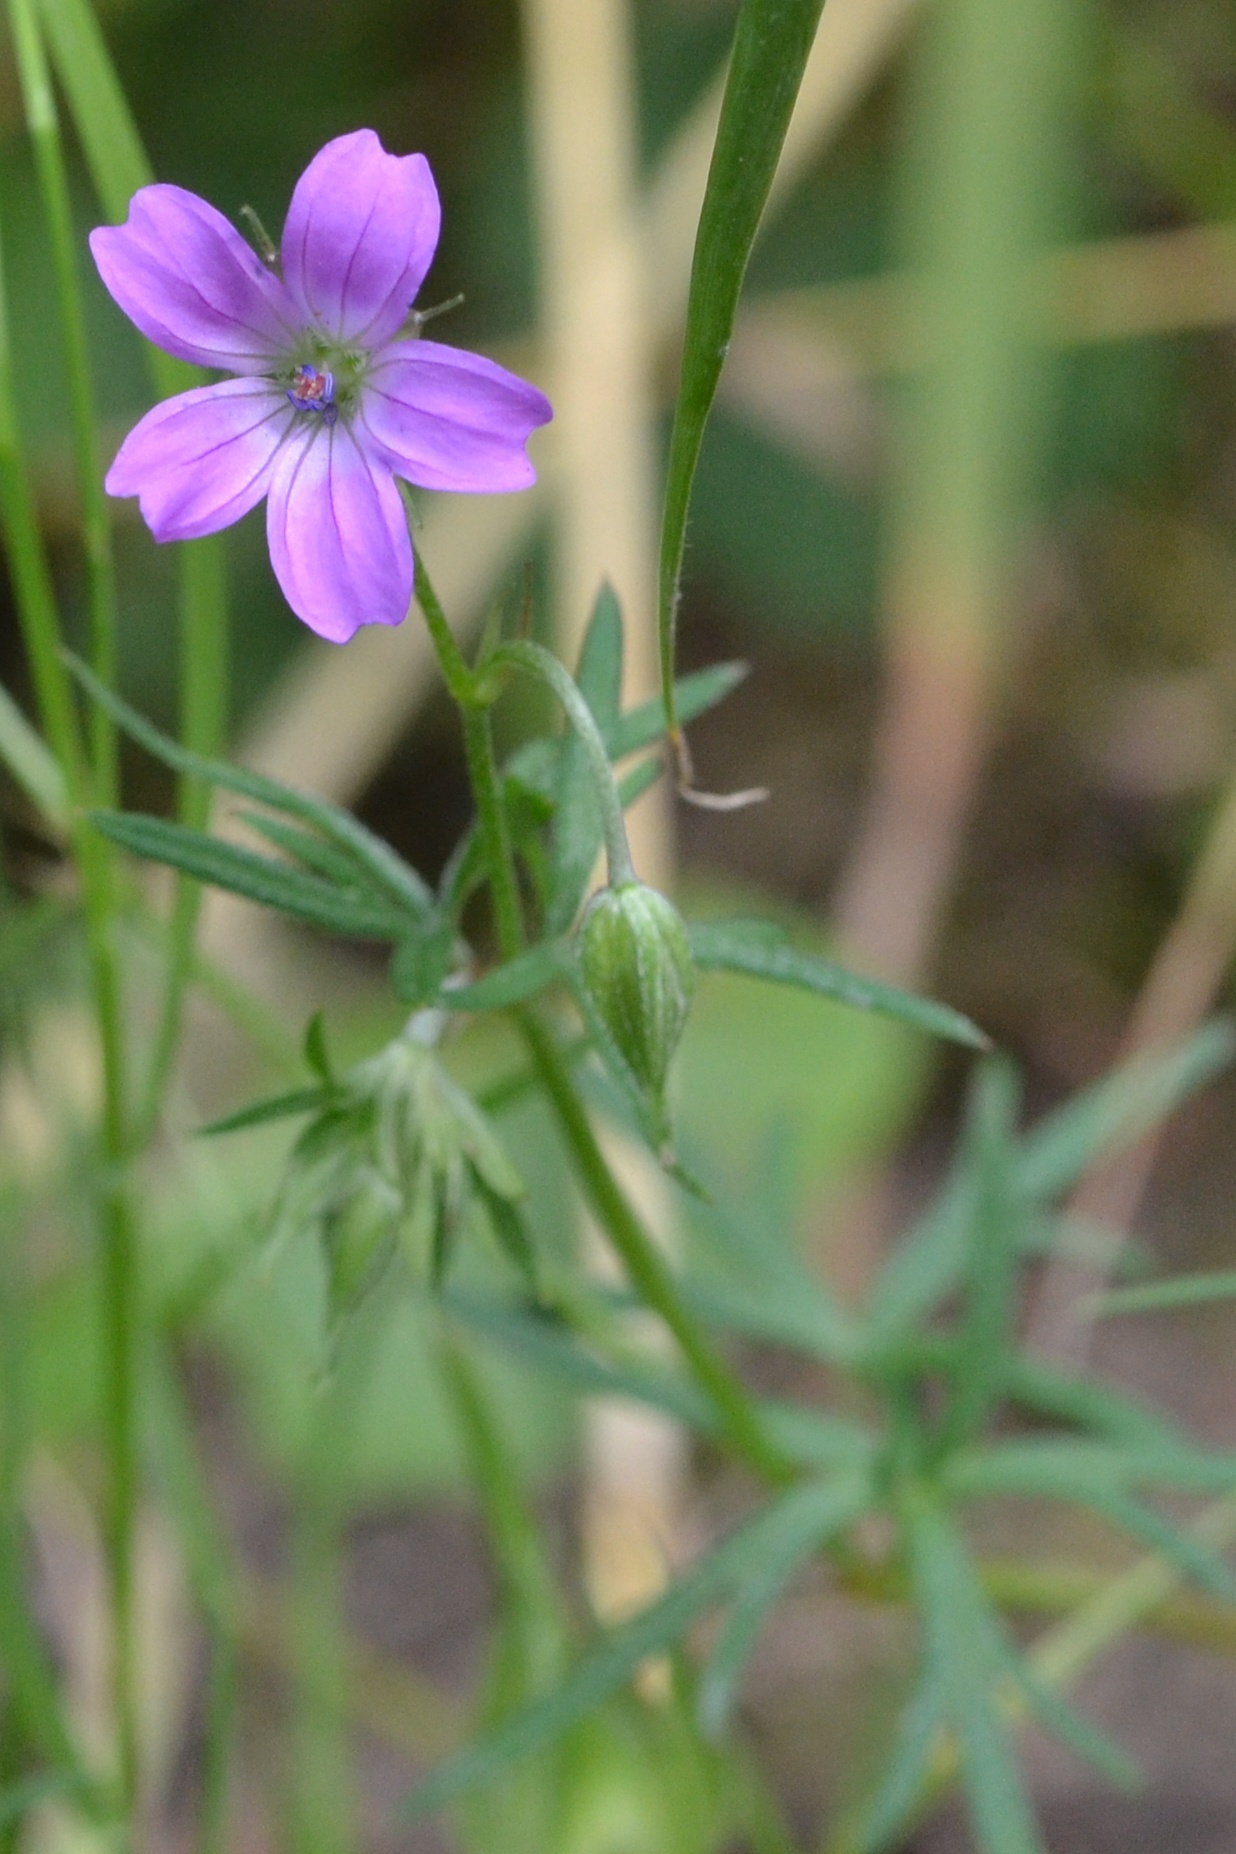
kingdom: Plantae
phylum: Tracheophyta
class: Magnoliopsida
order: Geraniales
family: Geraniaceae
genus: Geranium
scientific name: Geranium columbinum
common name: Long-stalked crane's-bill
